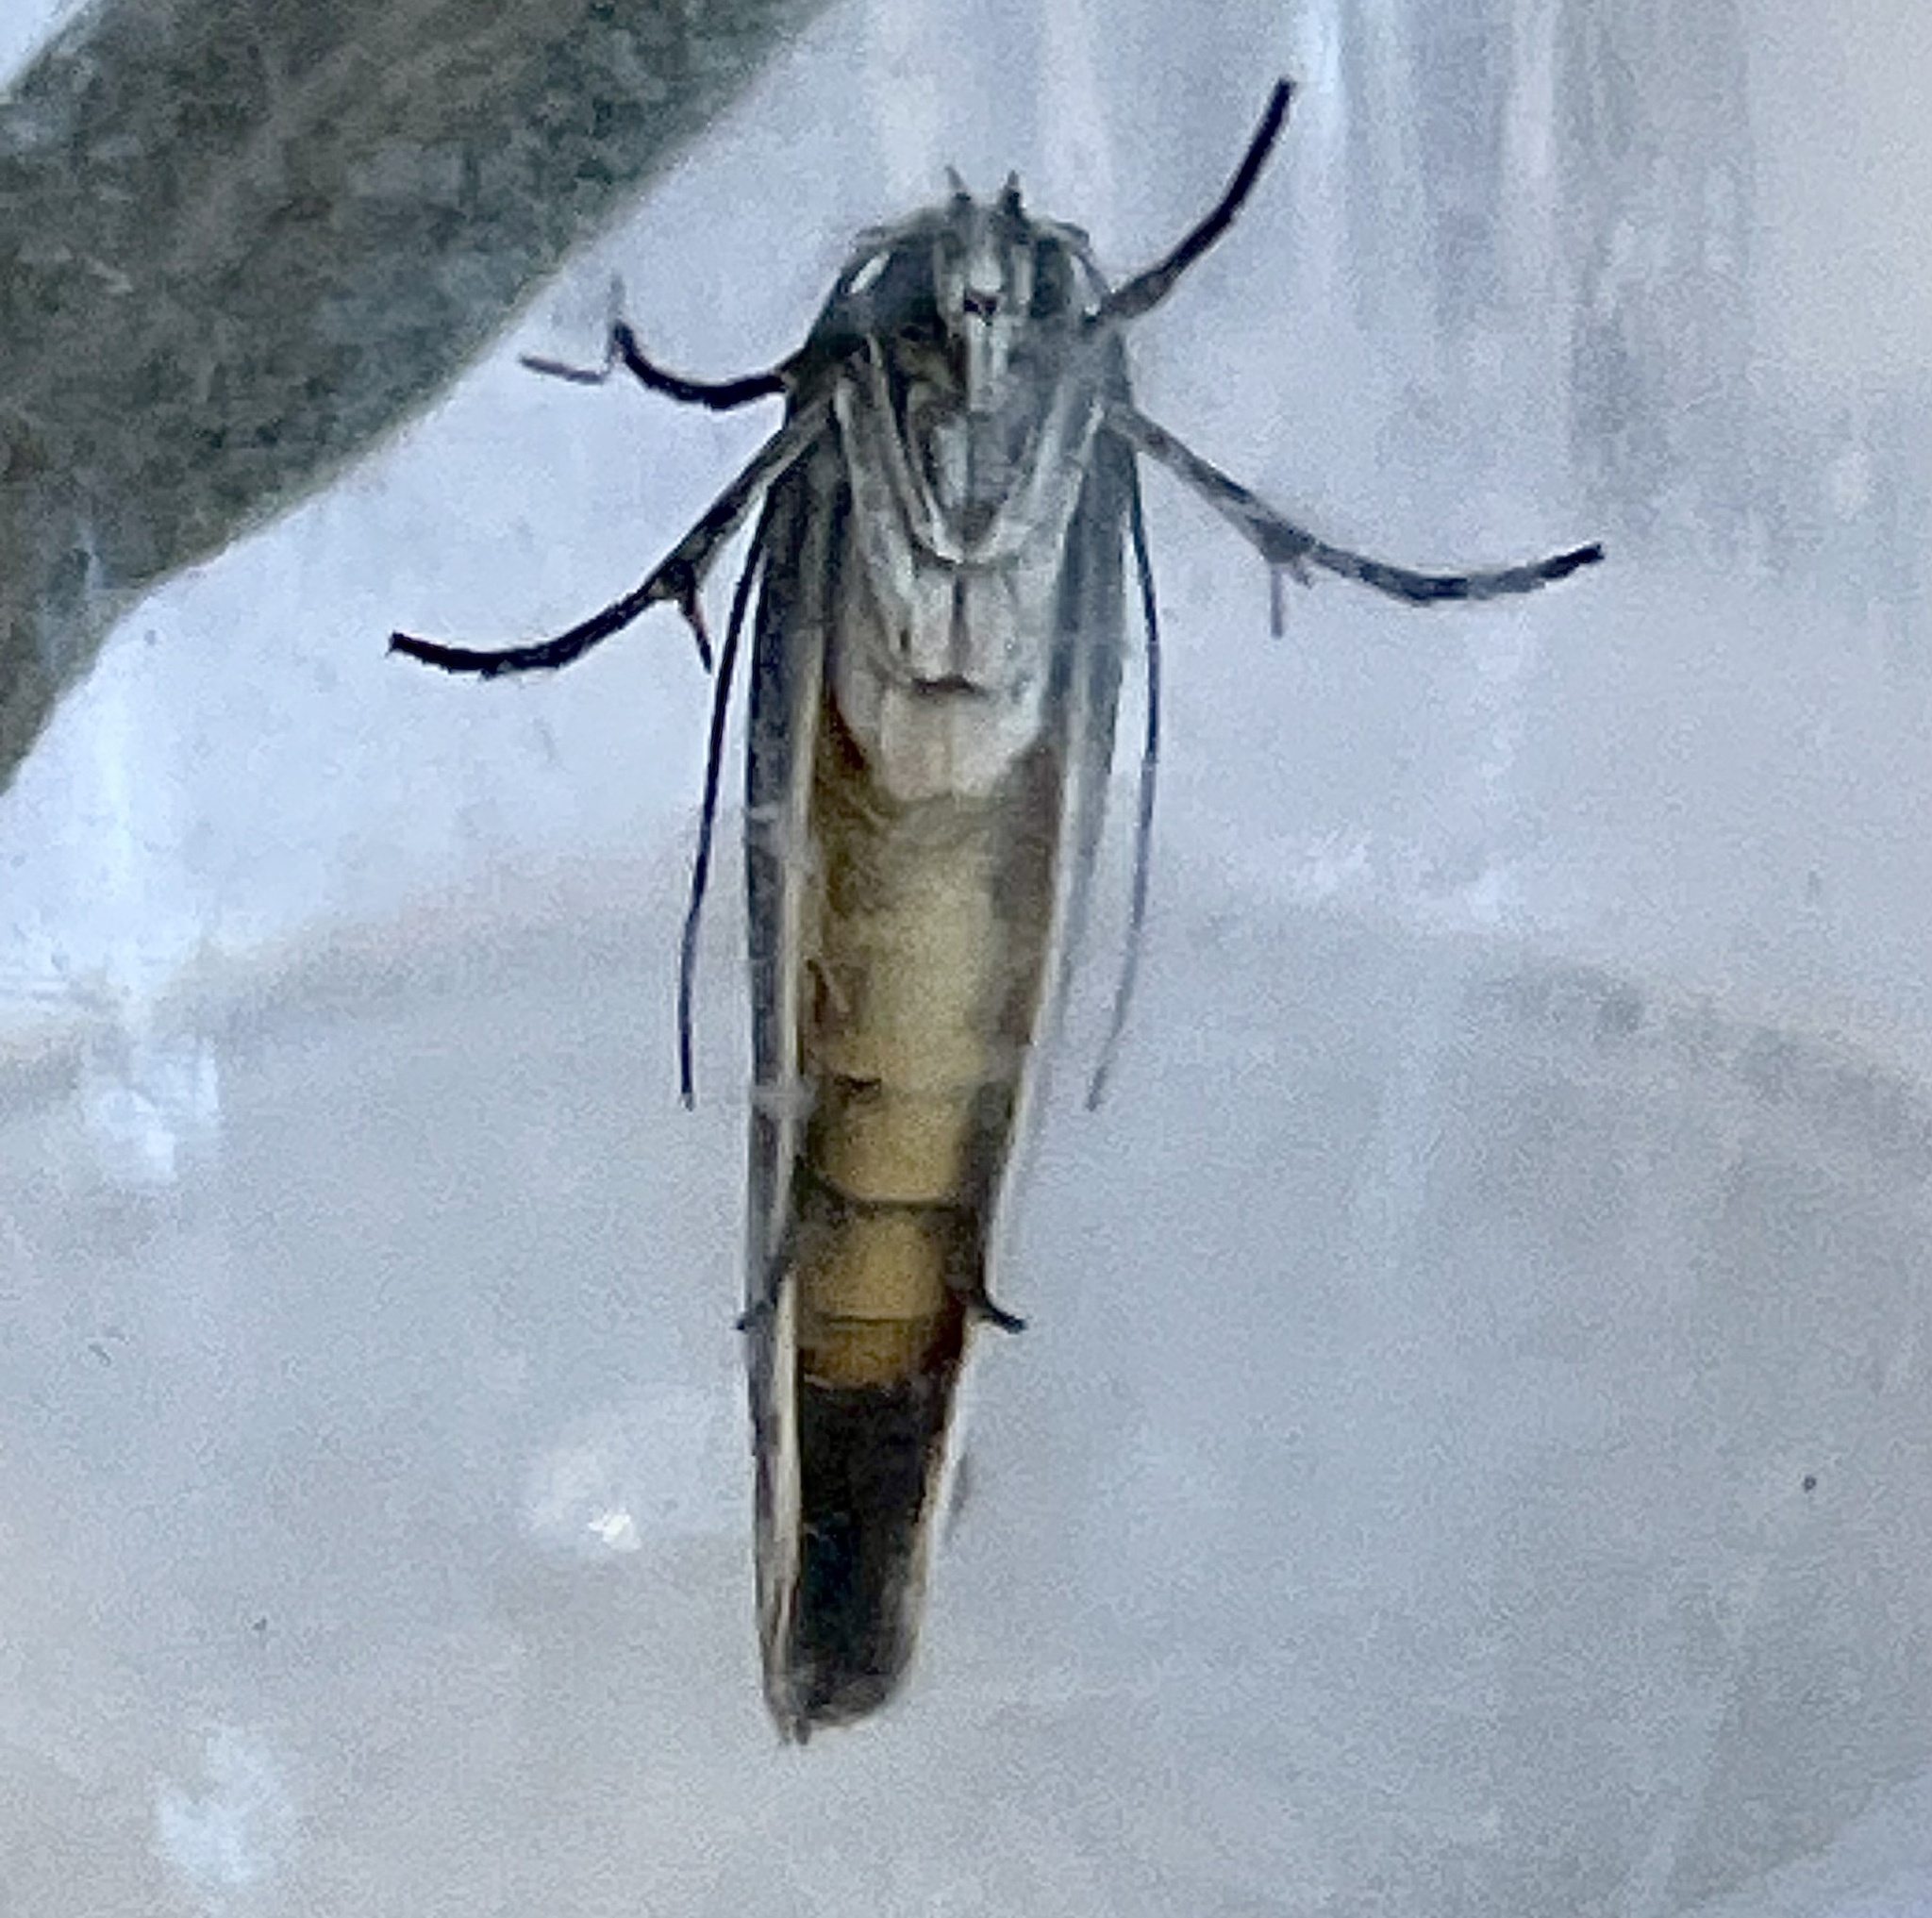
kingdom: Animalia
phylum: Arthropoda
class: Insecta
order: Lepidoptera
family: Ethmiidae
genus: Ethmia
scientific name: Ethmia discostrigella
